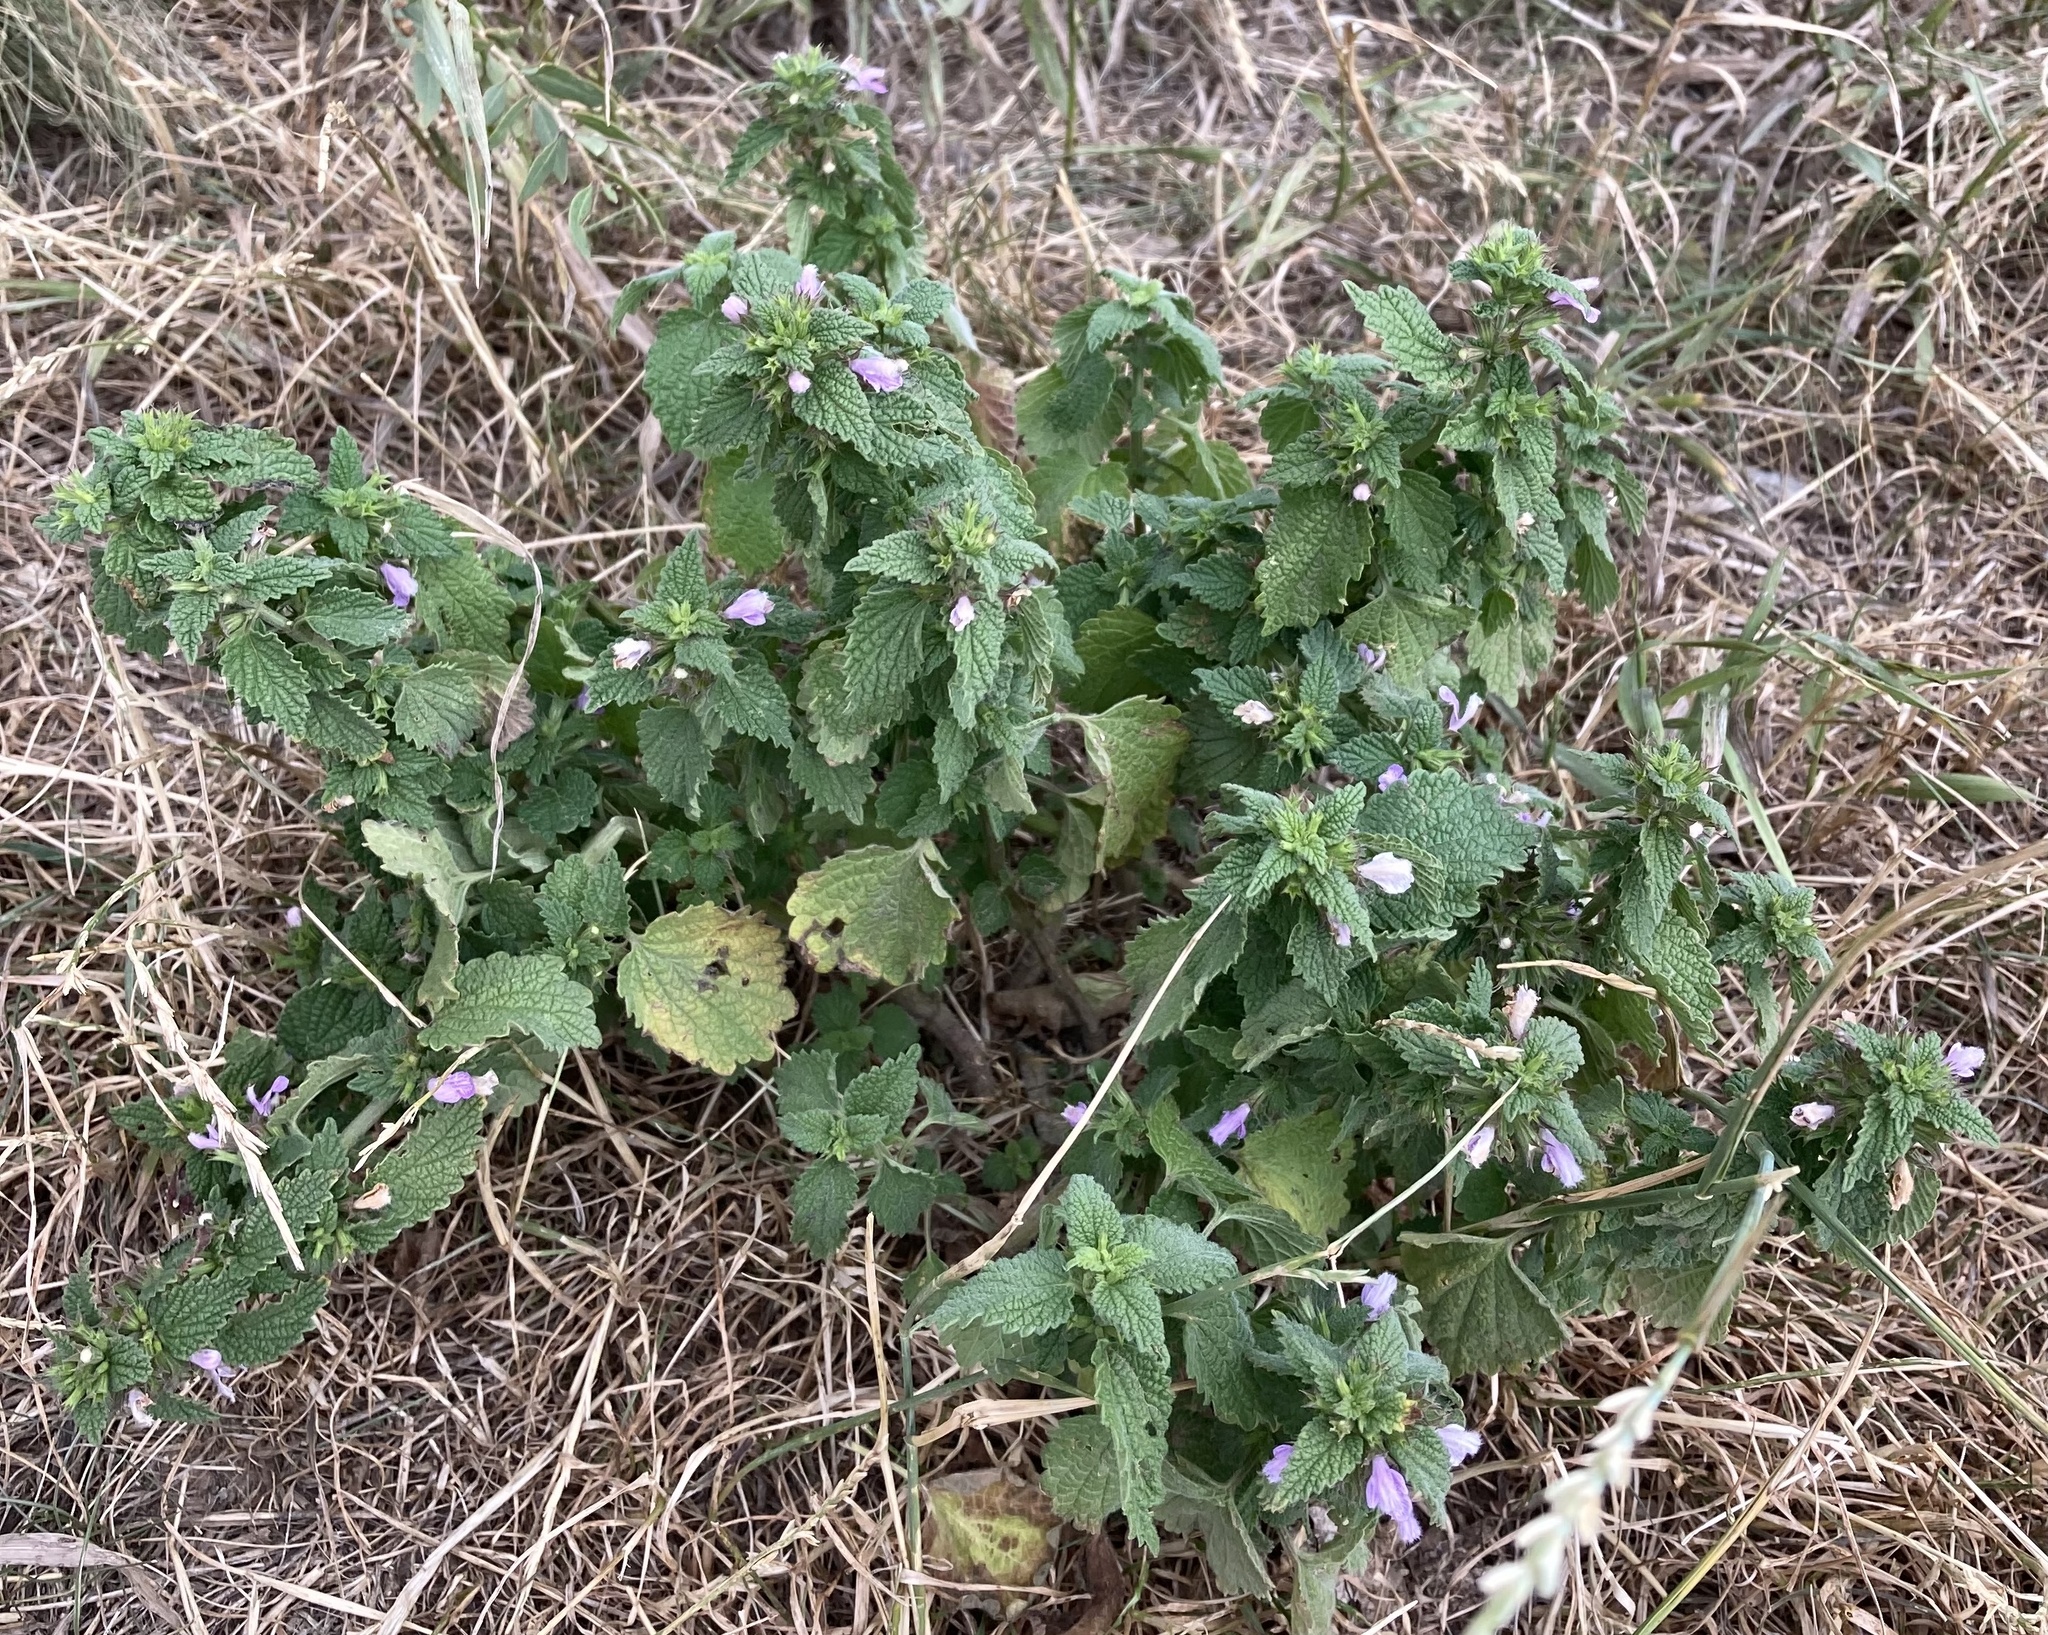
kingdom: Plantae
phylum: Tracheophyta
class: Magnoliopsida
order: Lamiales
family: Lamiaceae
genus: Ballota
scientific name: Ballota nigra
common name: Black horehound
